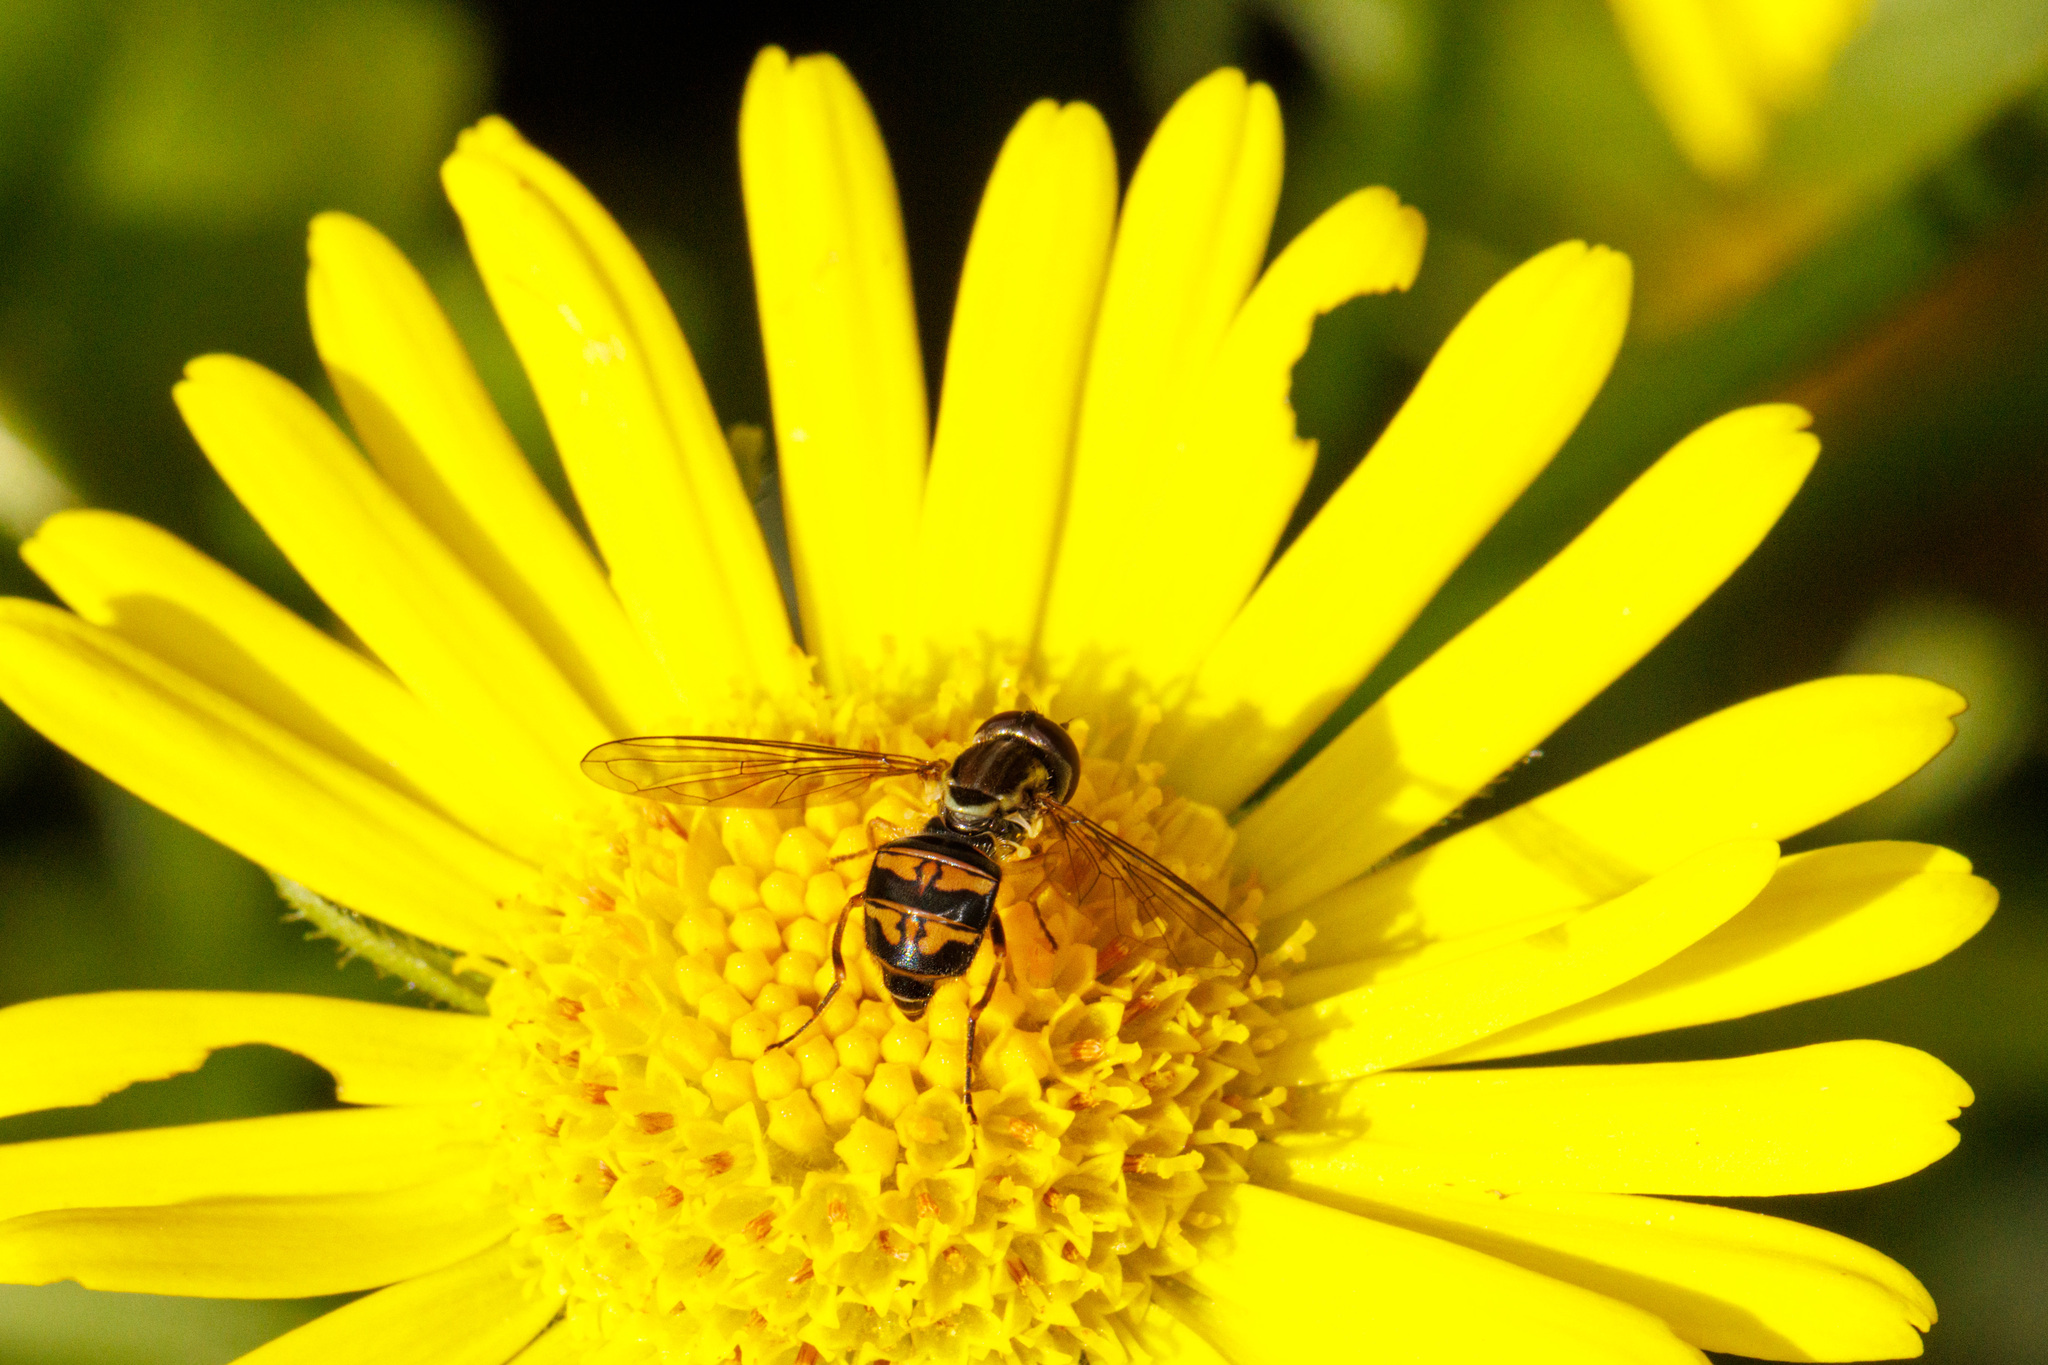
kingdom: Animalia
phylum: Arthropoda
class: Insecta
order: Diptera
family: Syrphidae
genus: Toxomerus
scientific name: Toxomerus occidentalis
